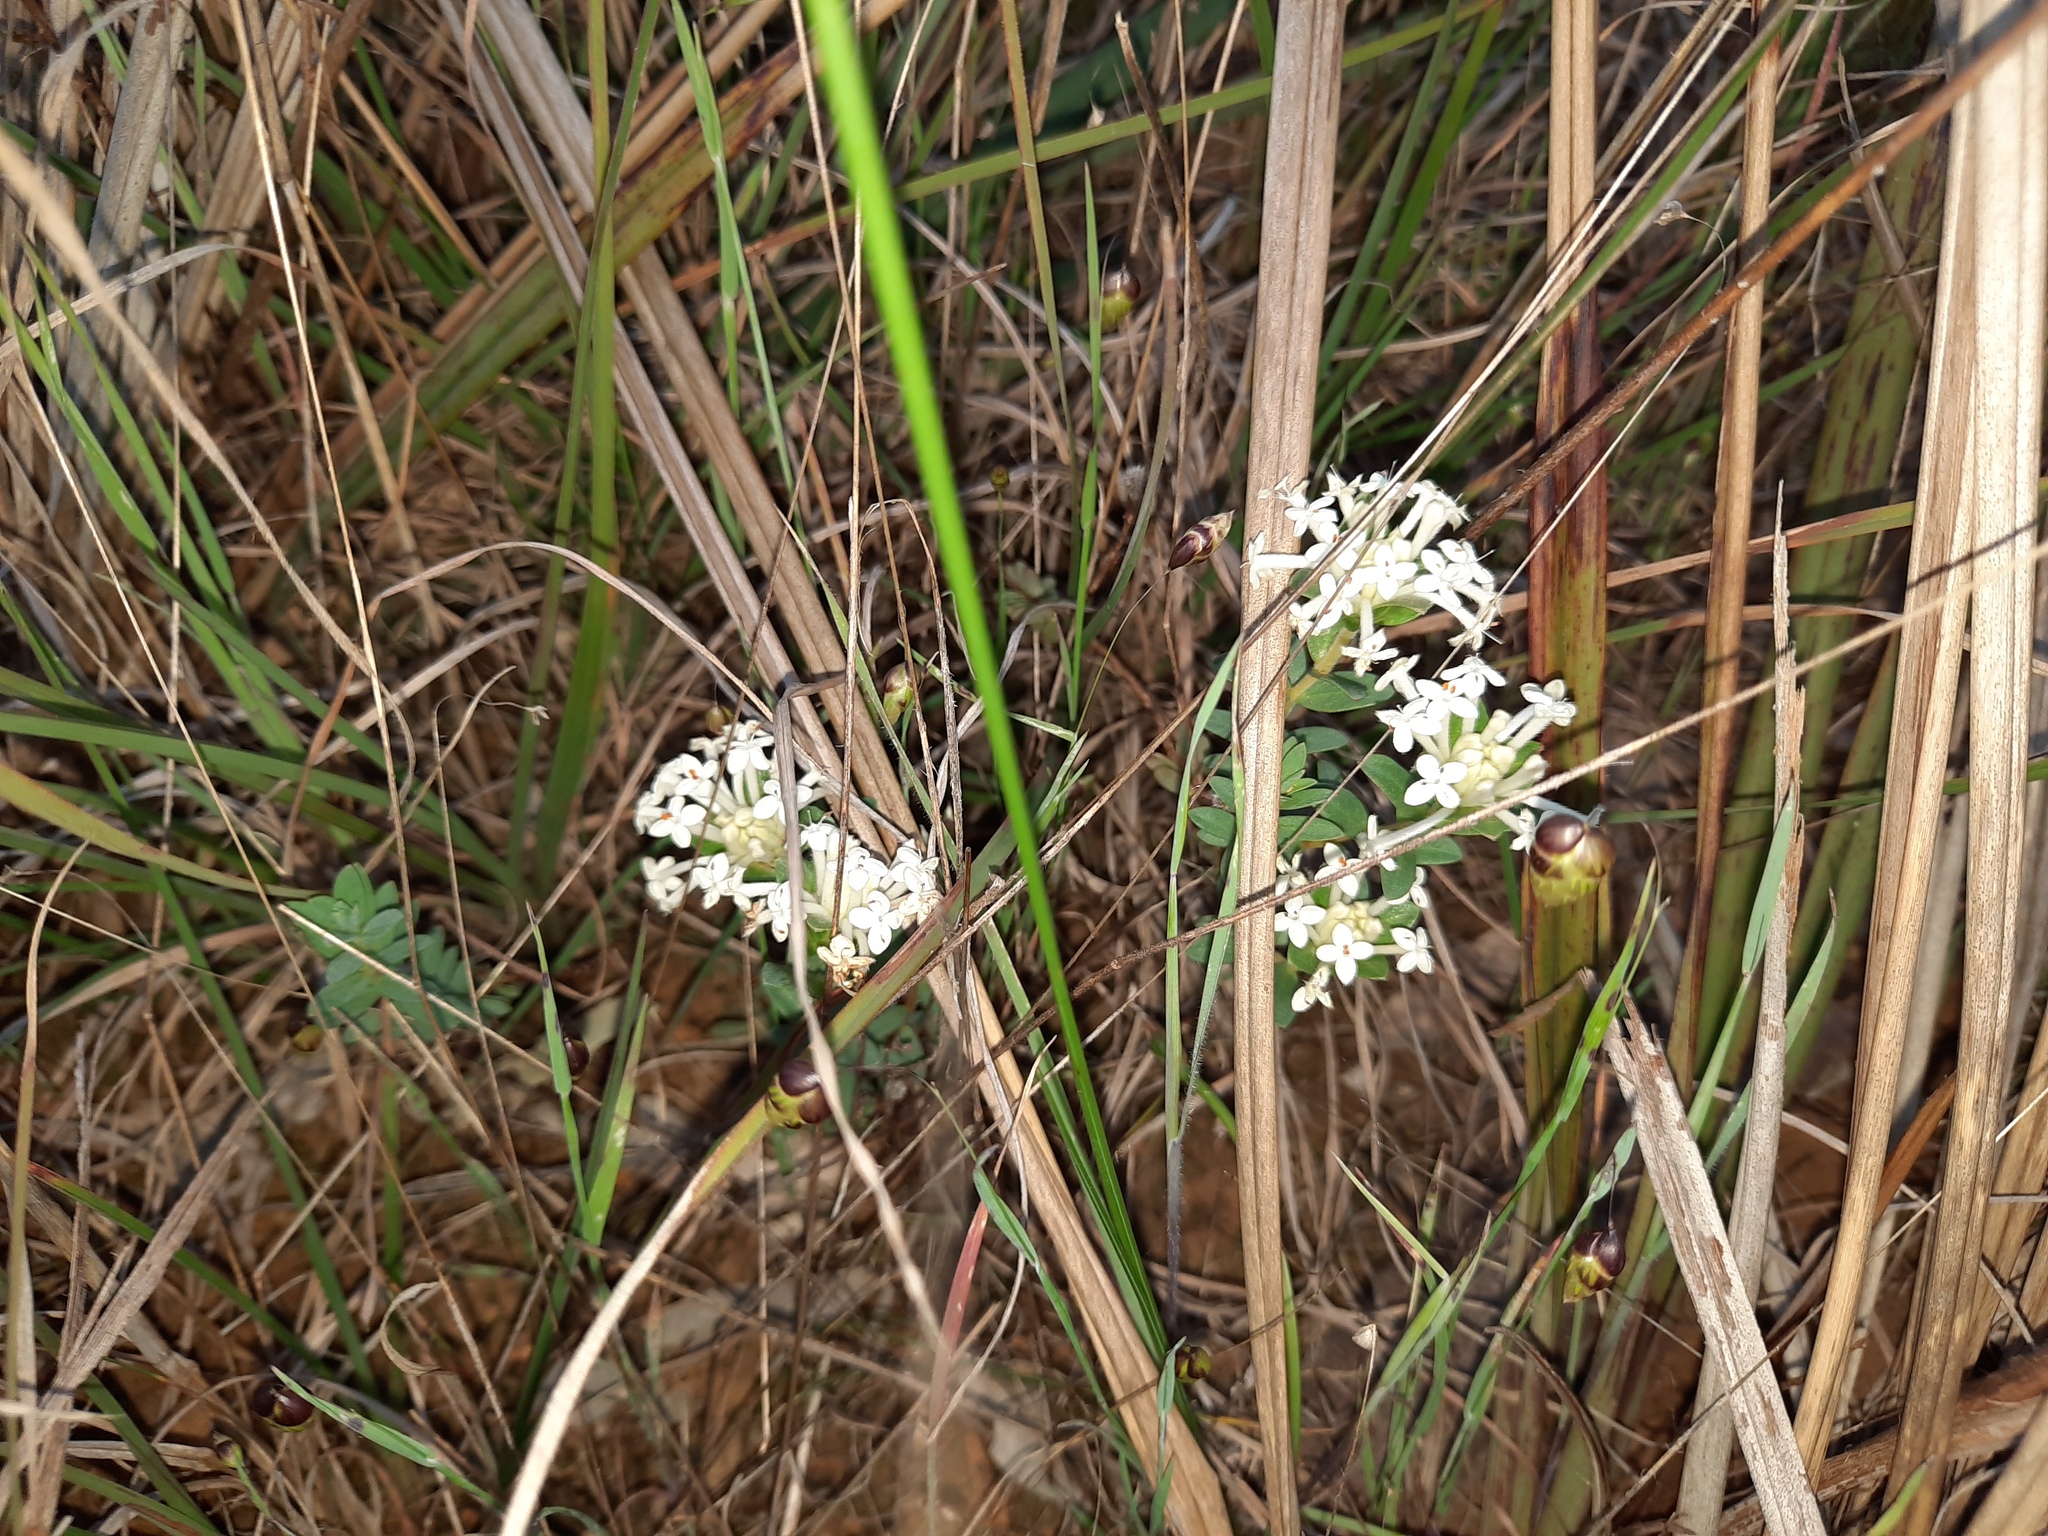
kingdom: Plantae
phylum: Tracheophyta
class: Magnoliopsida
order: Malvales
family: Thymelaeaceae
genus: Pimelea
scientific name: Pimelea humilis
